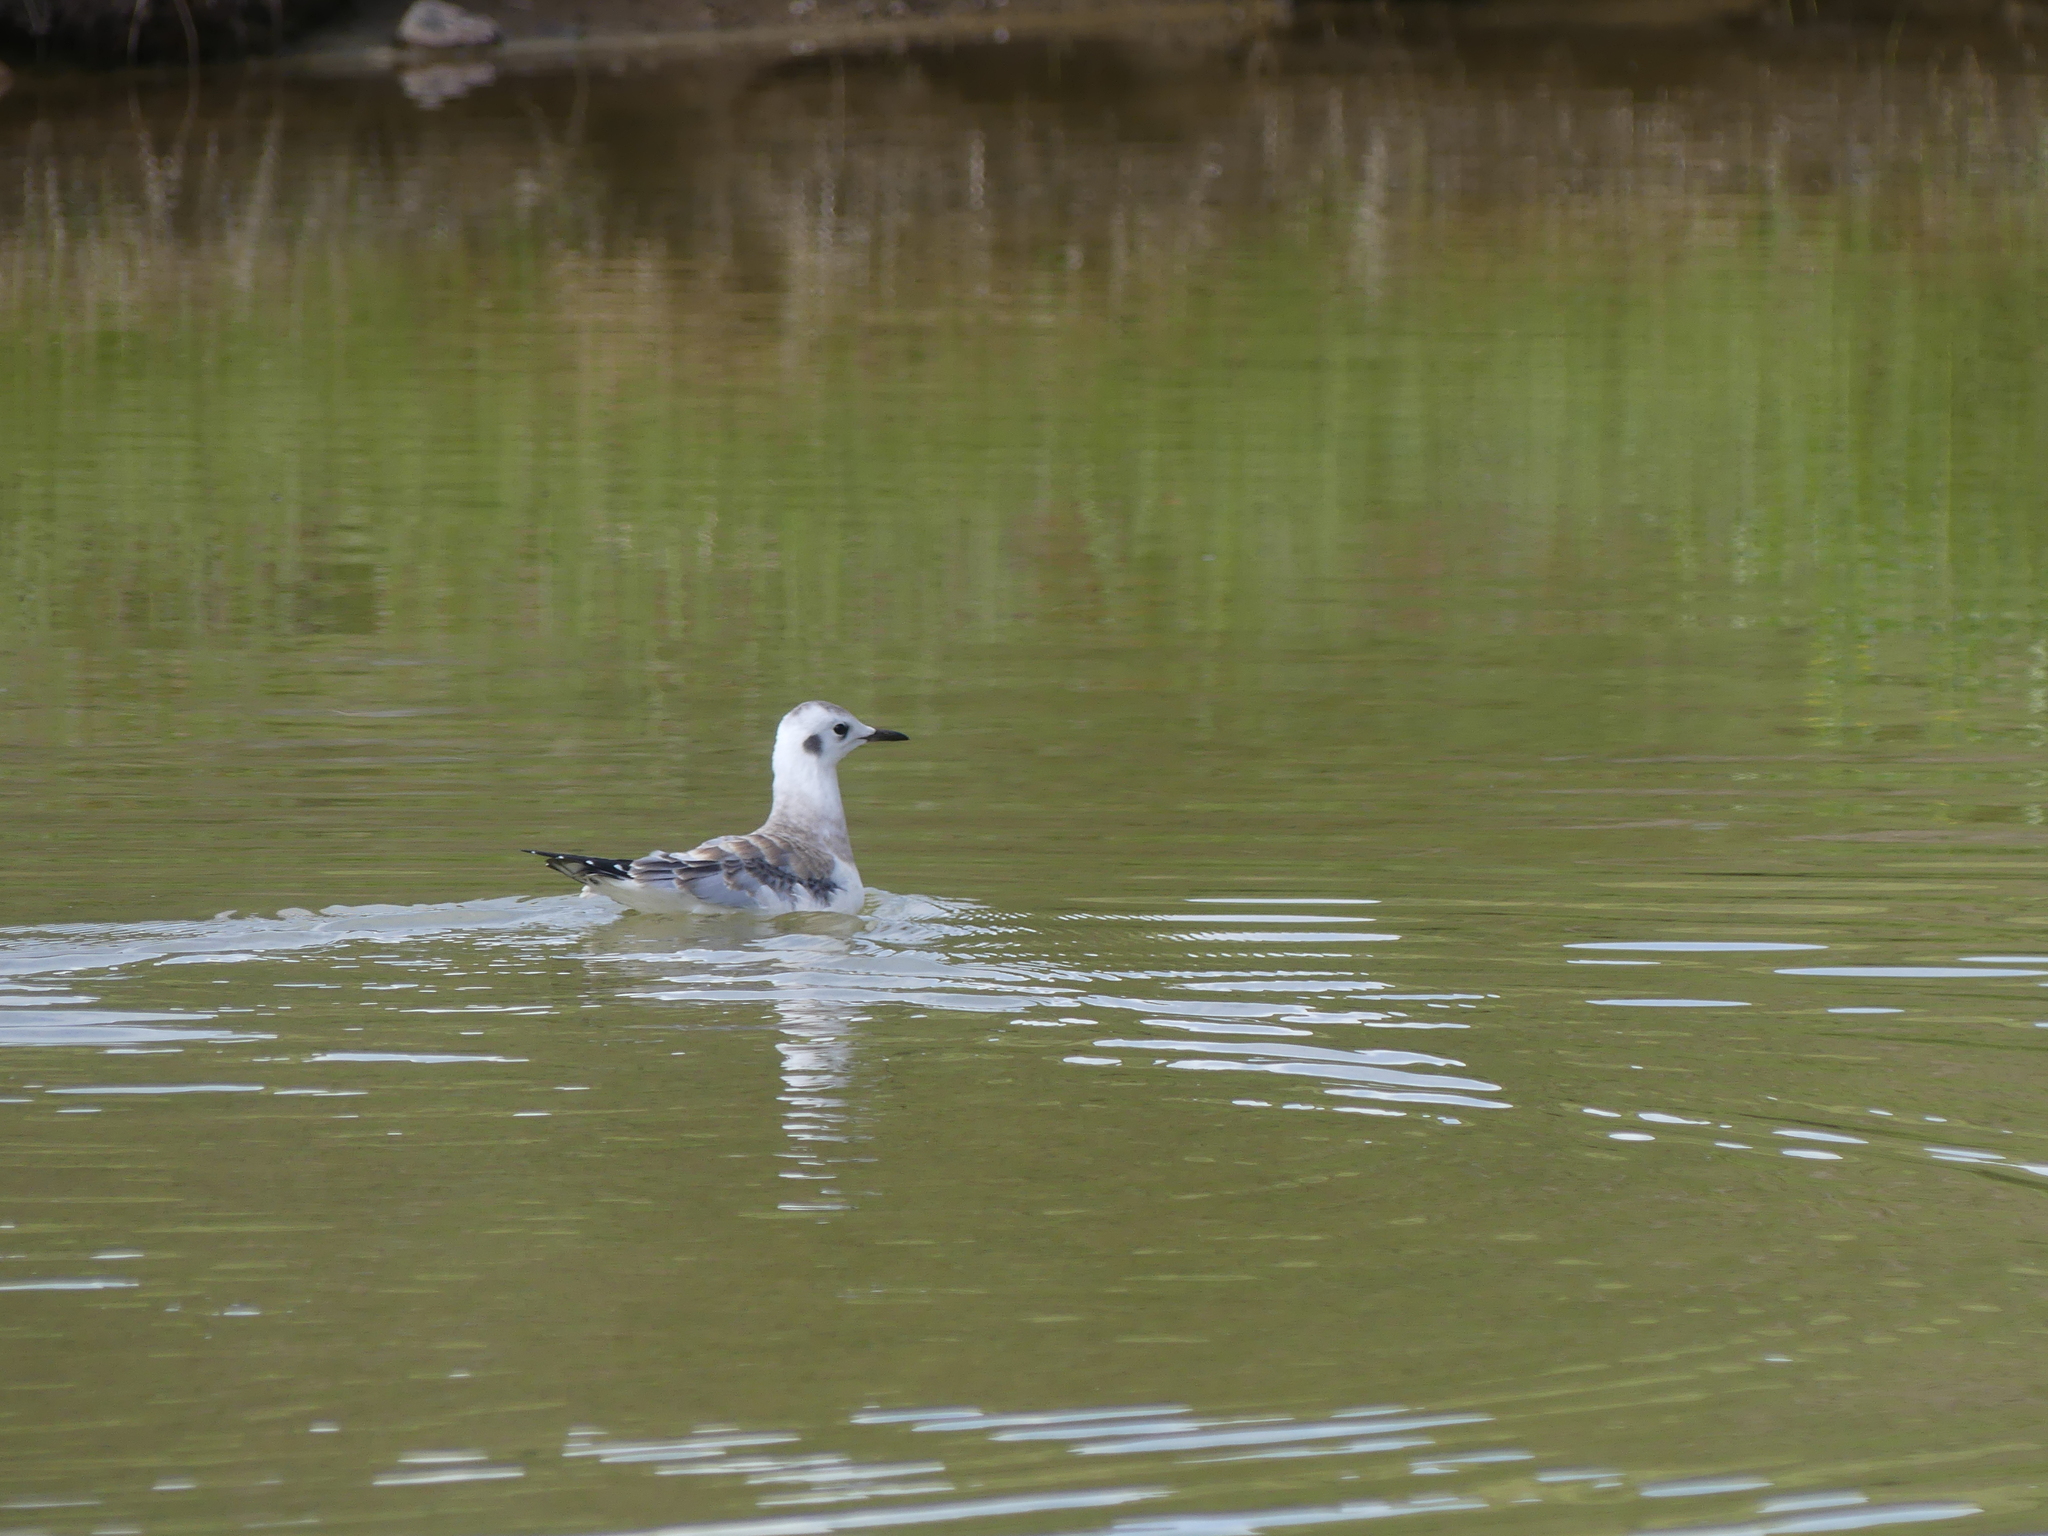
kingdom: Animalia
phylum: Chordata
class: Aves
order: Charadriiformes
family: Laridae
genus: Chroicocephalus
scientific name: Chroicocephalus philadelphia
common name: Bonaparte's gull
